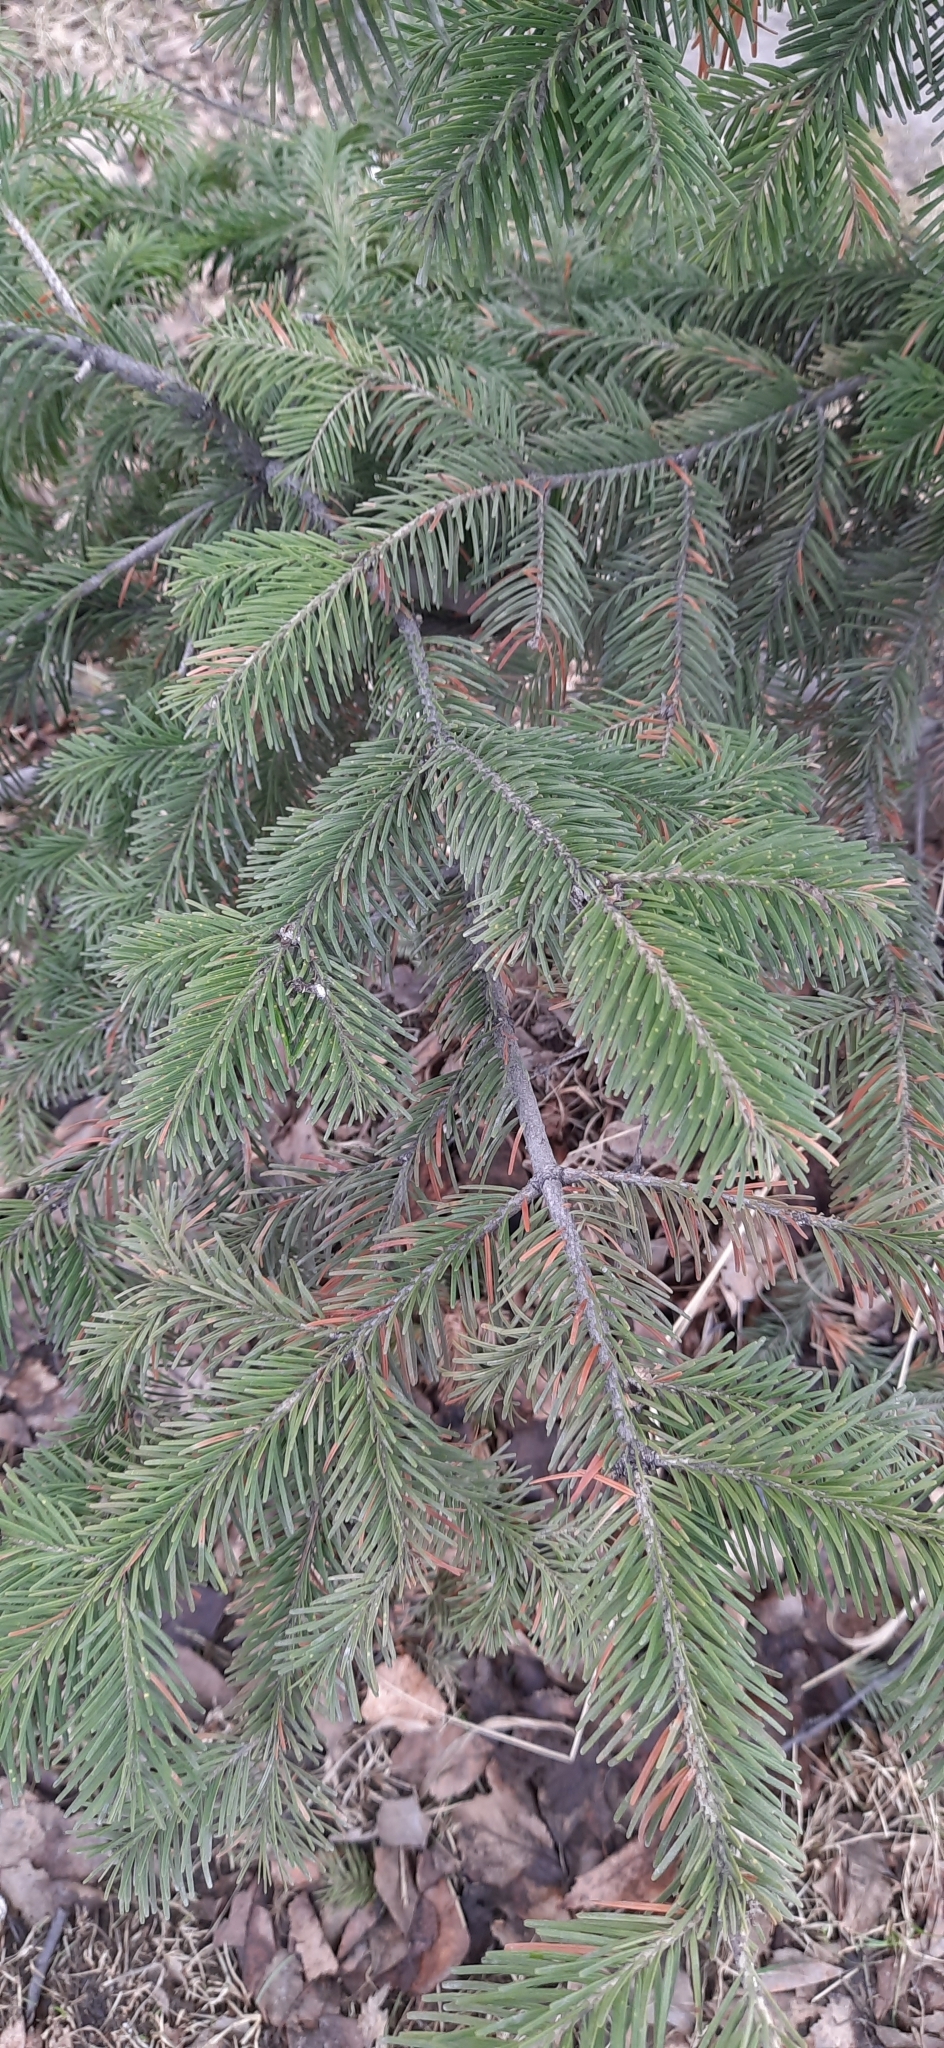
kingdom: Plantae
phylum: Tracheophyta
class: Pinopsida
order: Pinales
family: Pinaceae
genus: Abies
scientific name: Abies sibirica
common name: Siberian fir
